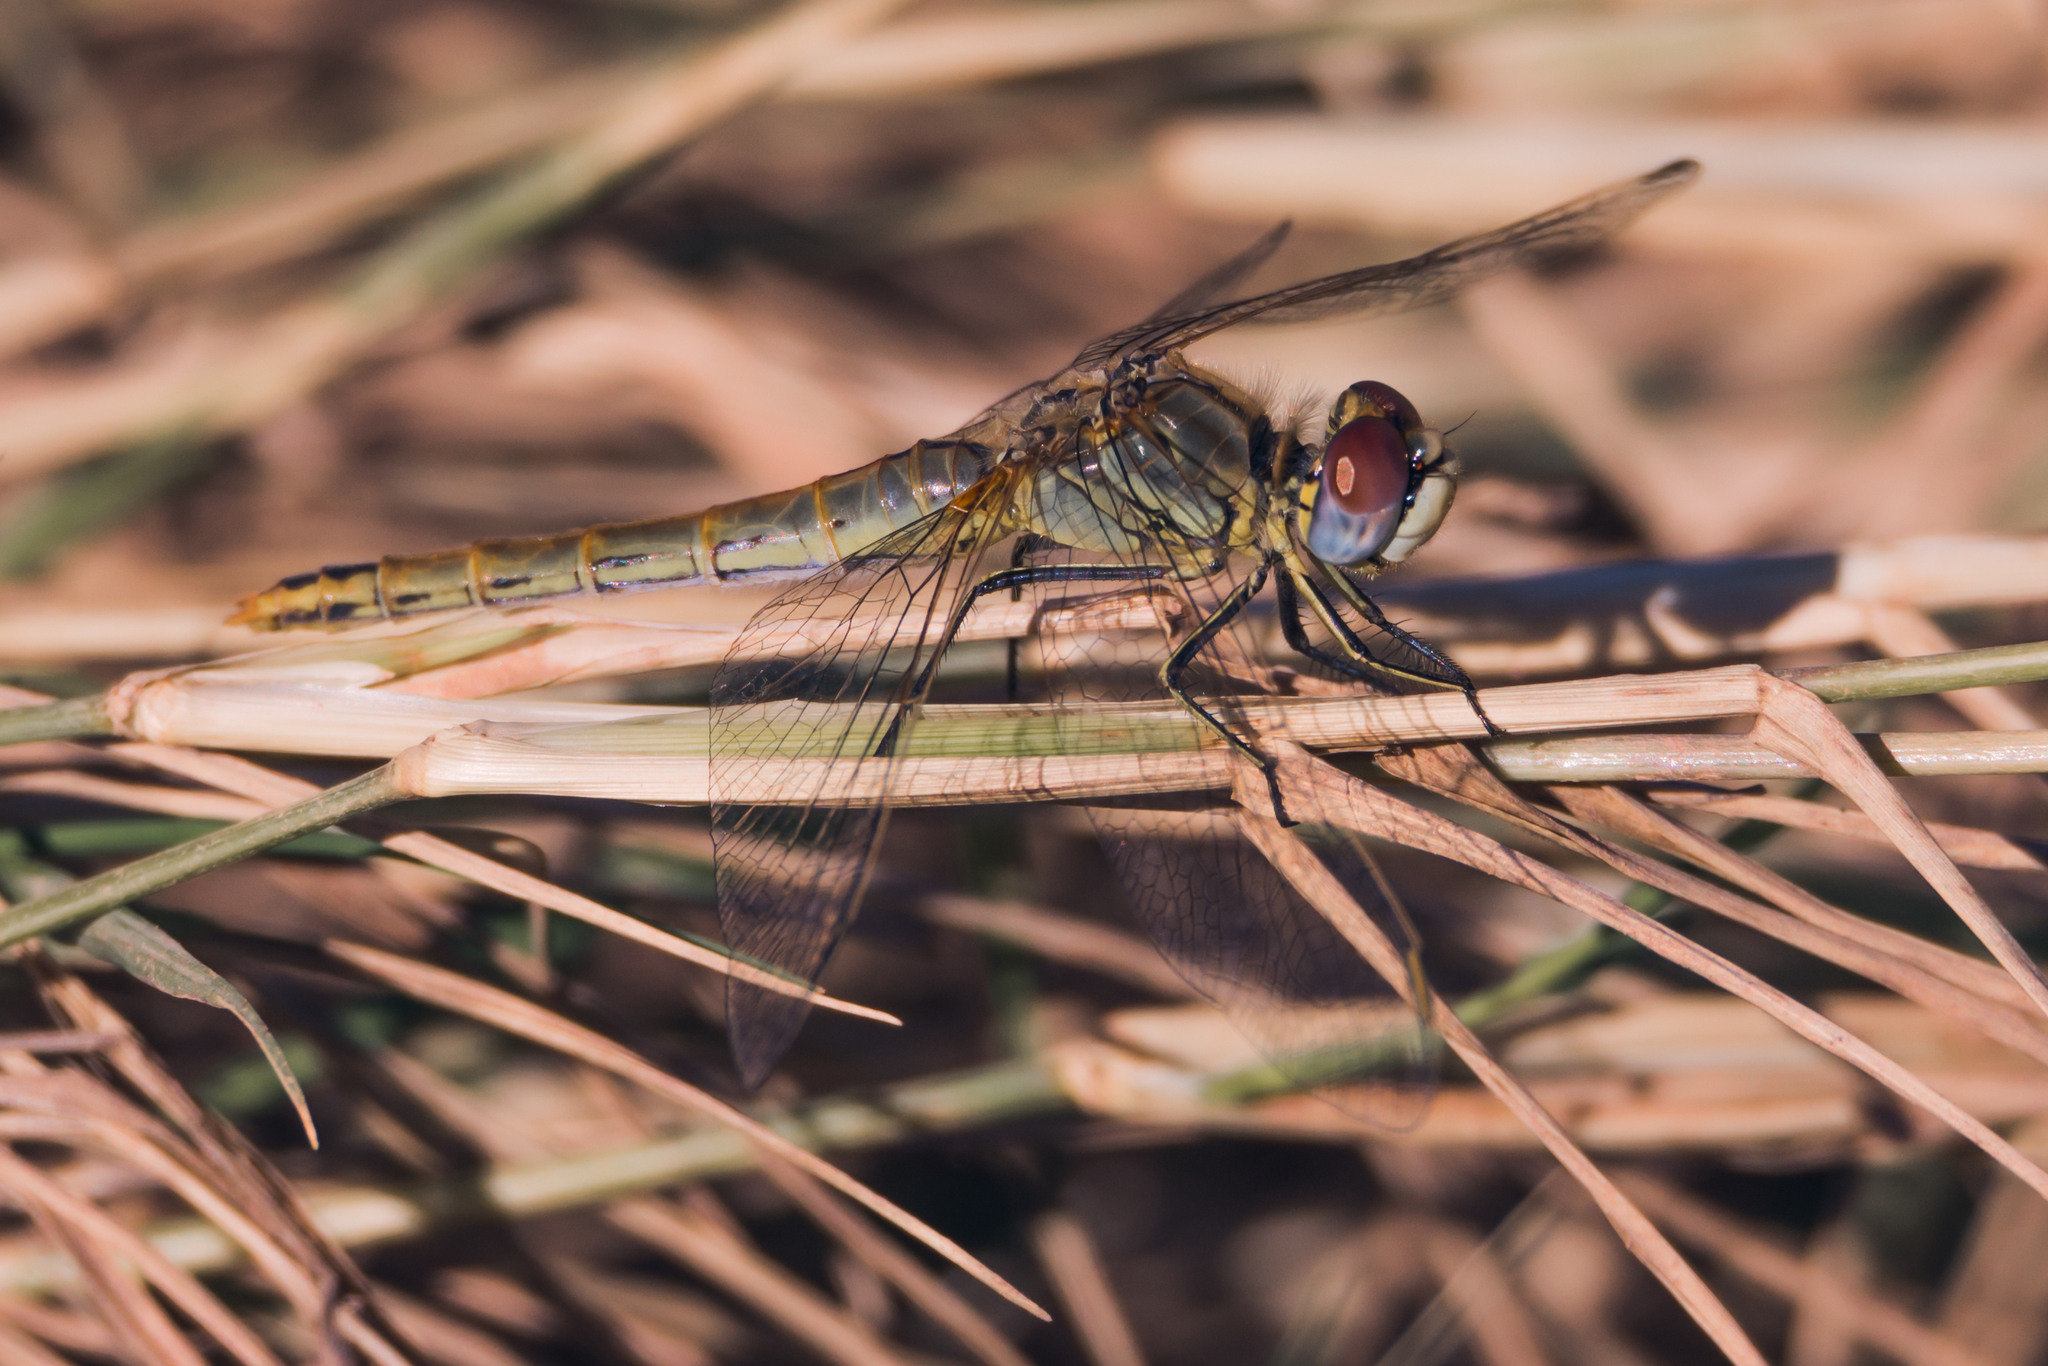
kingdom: Animalia
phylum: Arthropoda
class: Insecta
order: Odonata
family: Libellulidae
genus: Sympetrum
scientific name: Sympetrum fonscolombii
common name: Red-veined darter
